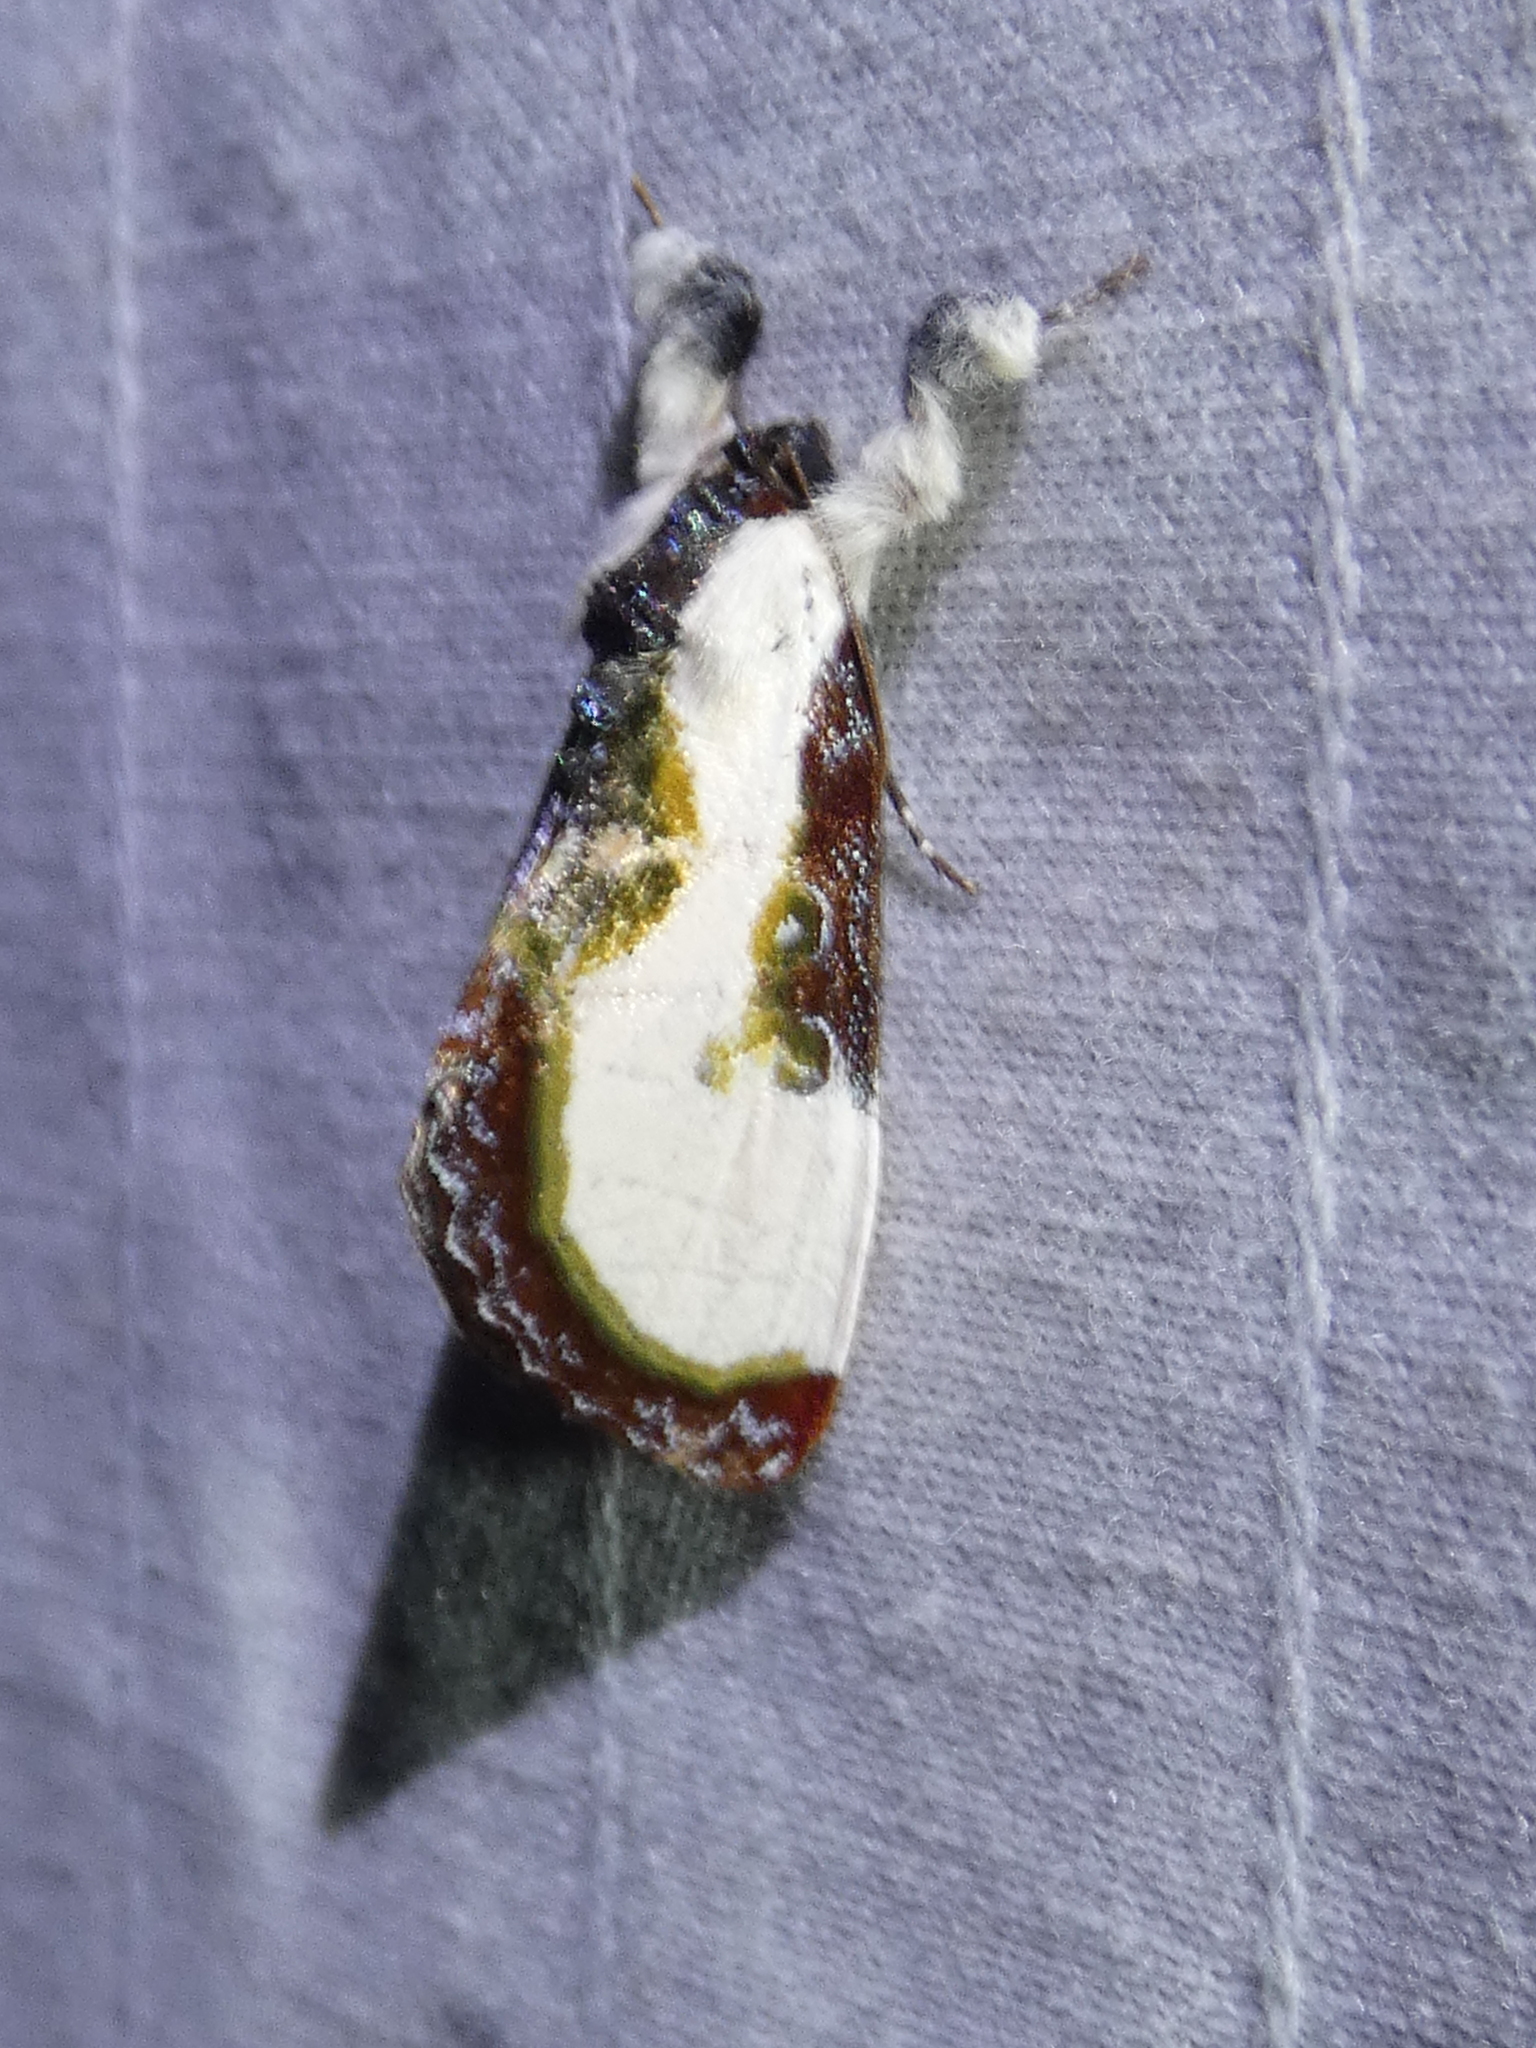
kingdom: Animalia
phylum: Arthropoda
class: Insecta
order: Lepidoptera
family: Noctuidae
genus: Eudryas
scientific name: Eudryas grata
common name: Beautiful wood-nymph
